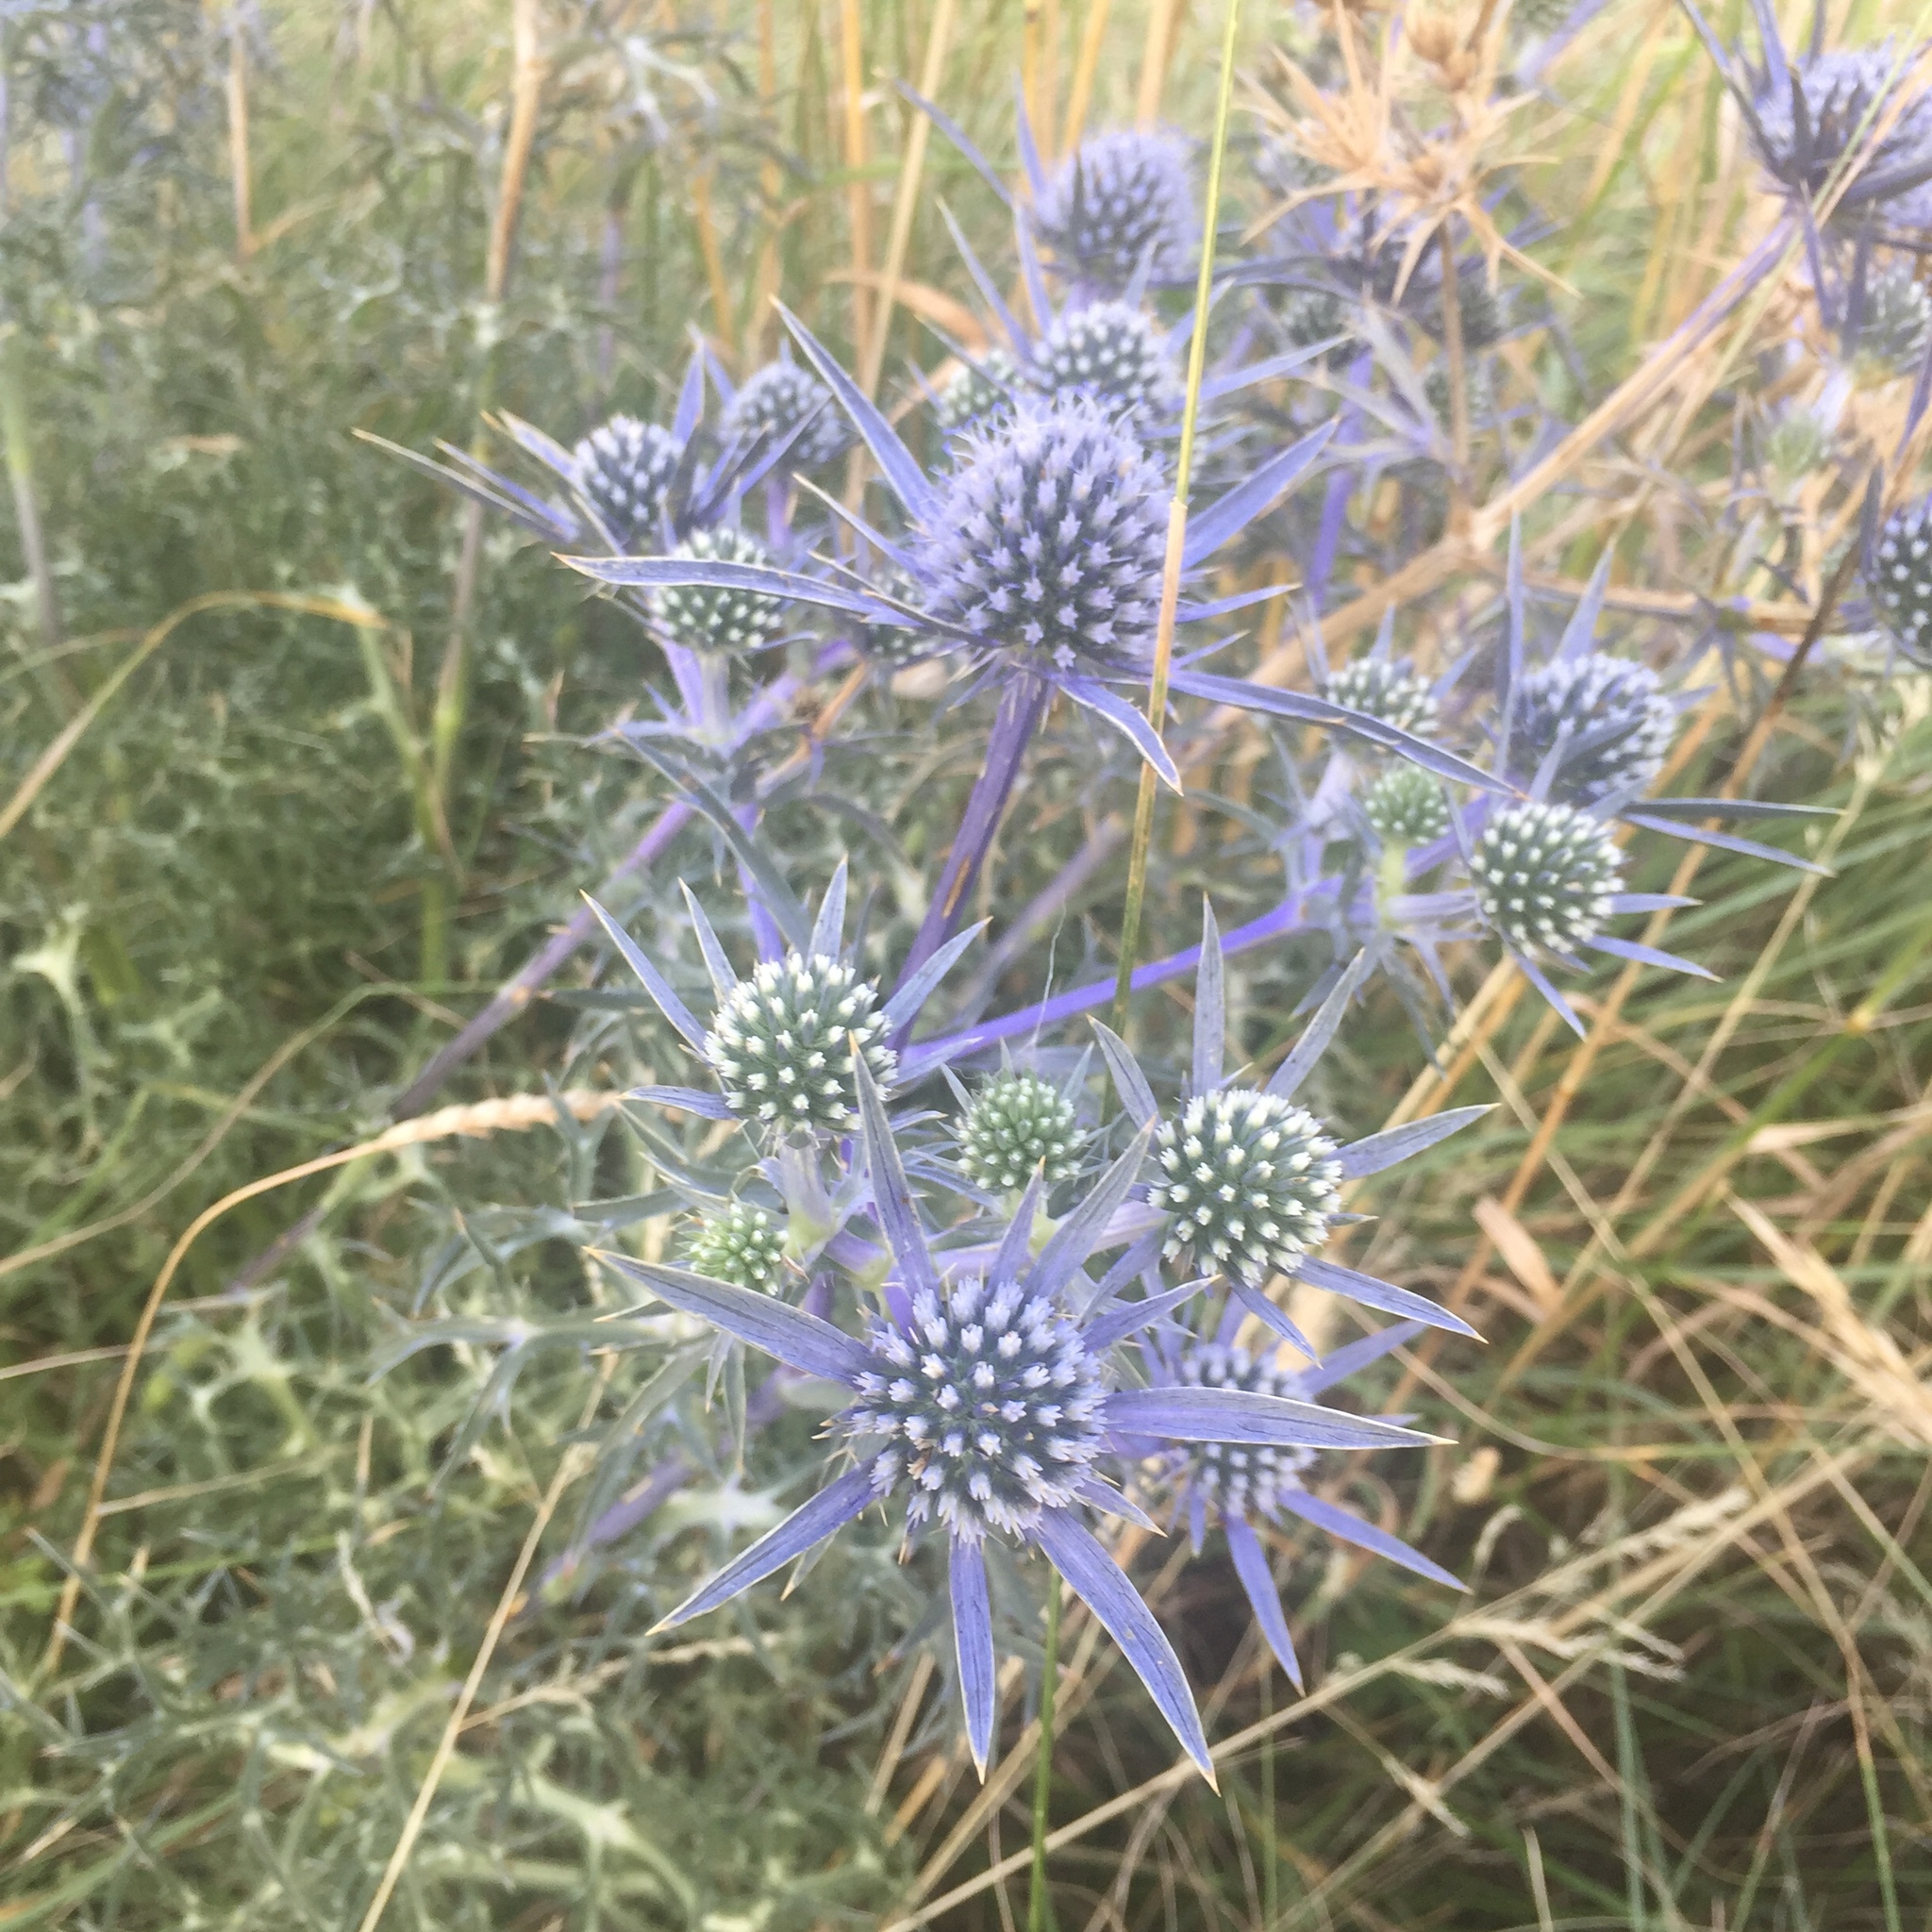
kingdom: Plantae
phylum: Tracheophyta
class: Magnoliopsida
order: Apiales
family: Apiaceae
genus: Eryngium
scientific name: Eryngium amethystinum
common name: Amethyst eryngo
